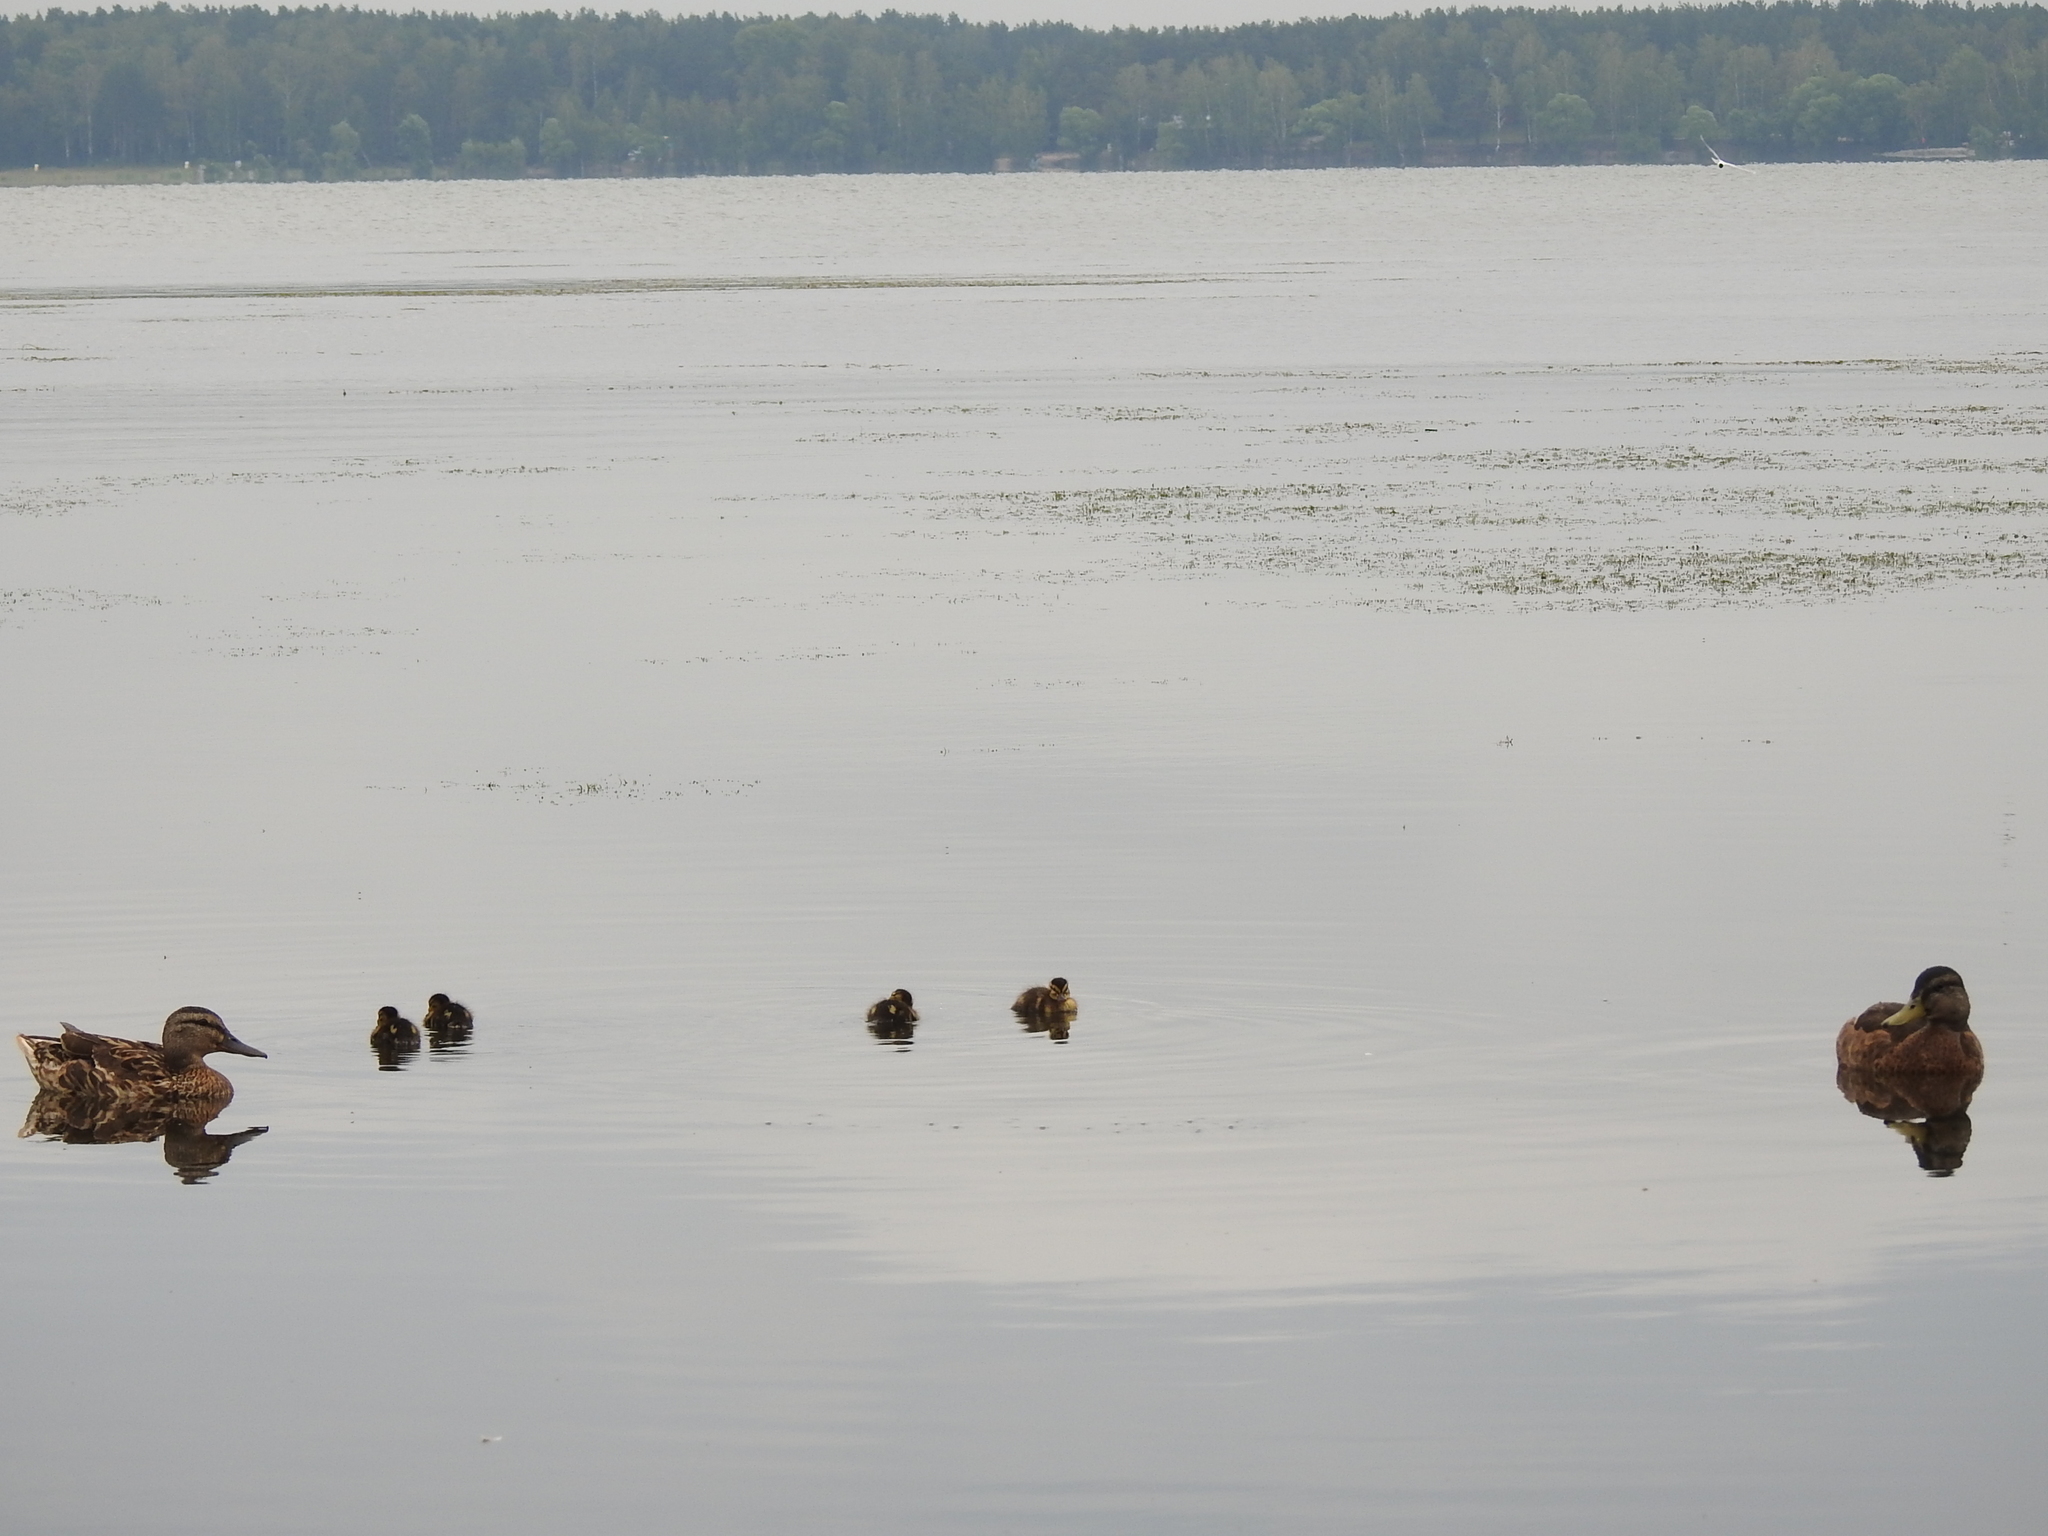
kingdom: Animalia
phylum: Chordata
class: Aves
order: Anseriformes
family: Anatidae
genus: Anas
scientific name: Anas platyrhynchos
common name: Mallard
